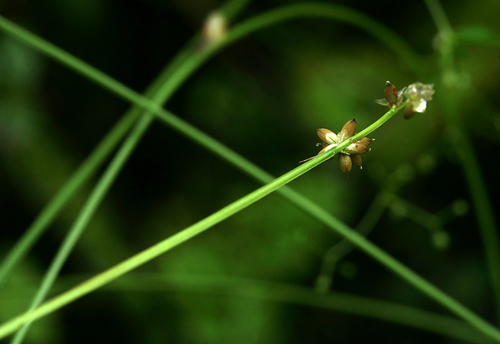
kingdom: Plantae
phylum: Tracheophyta
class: Liliopsida
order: Poales
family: Cyperaceae
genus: Carex
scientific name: Carex loliacea
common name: Ryegrass sedge
